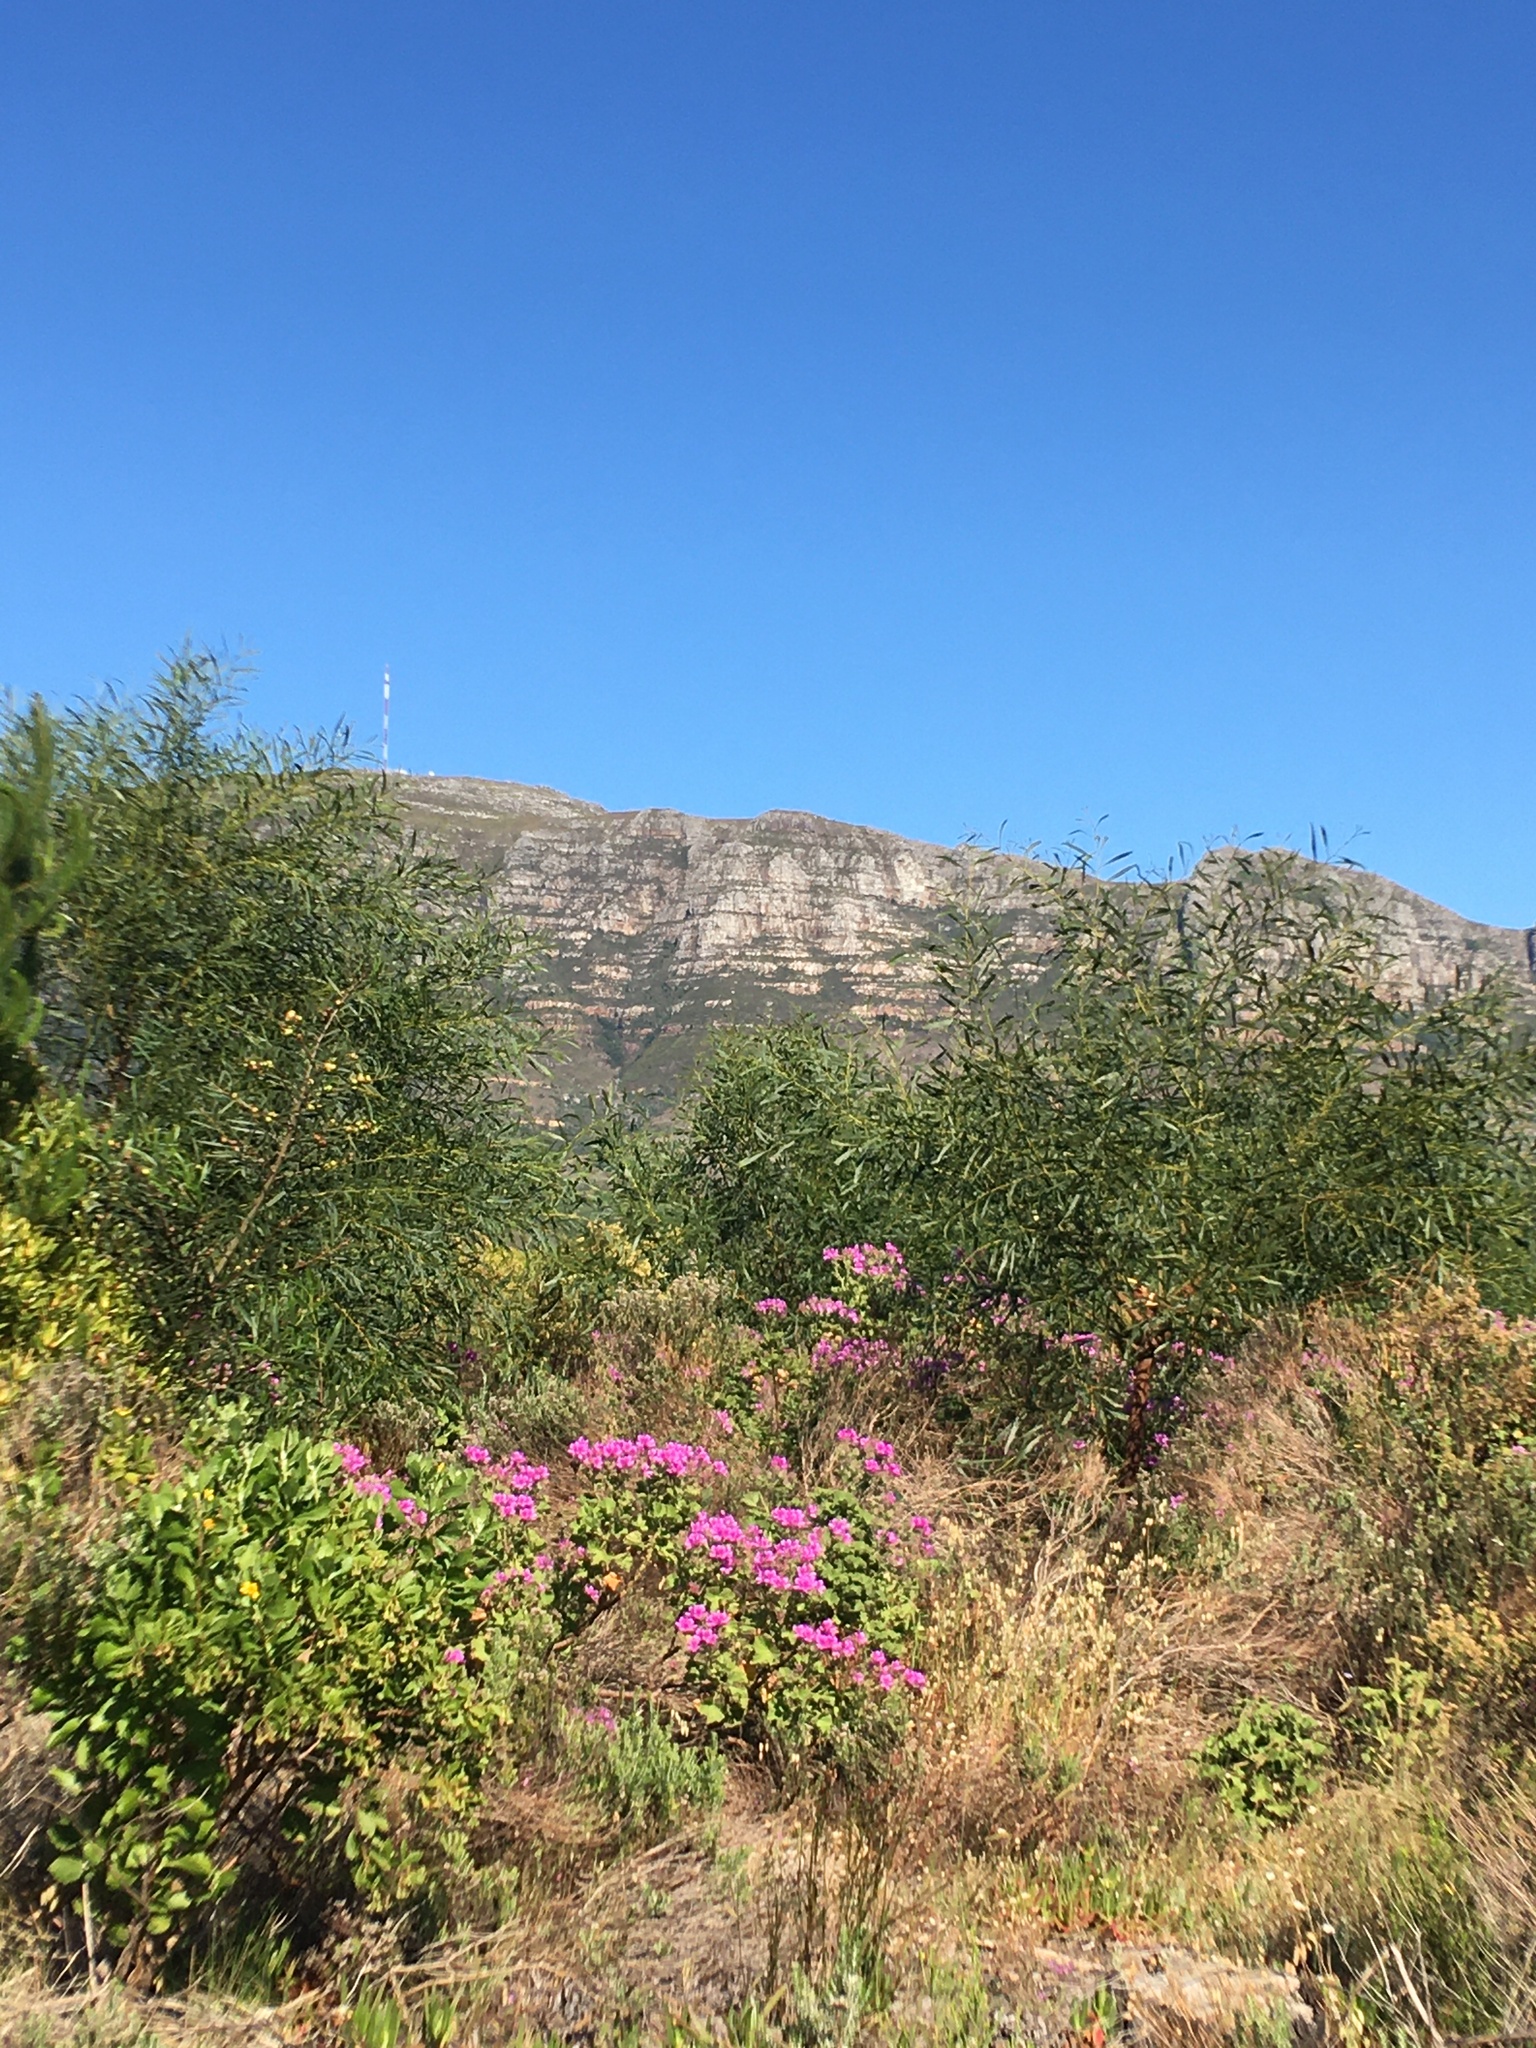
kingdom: Plantae
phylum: Tracheophyta
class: Magnoliopsida
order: Fabales
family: Fabaceae
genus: Acacia
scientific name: Acacia saligna
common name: Orange wattle
